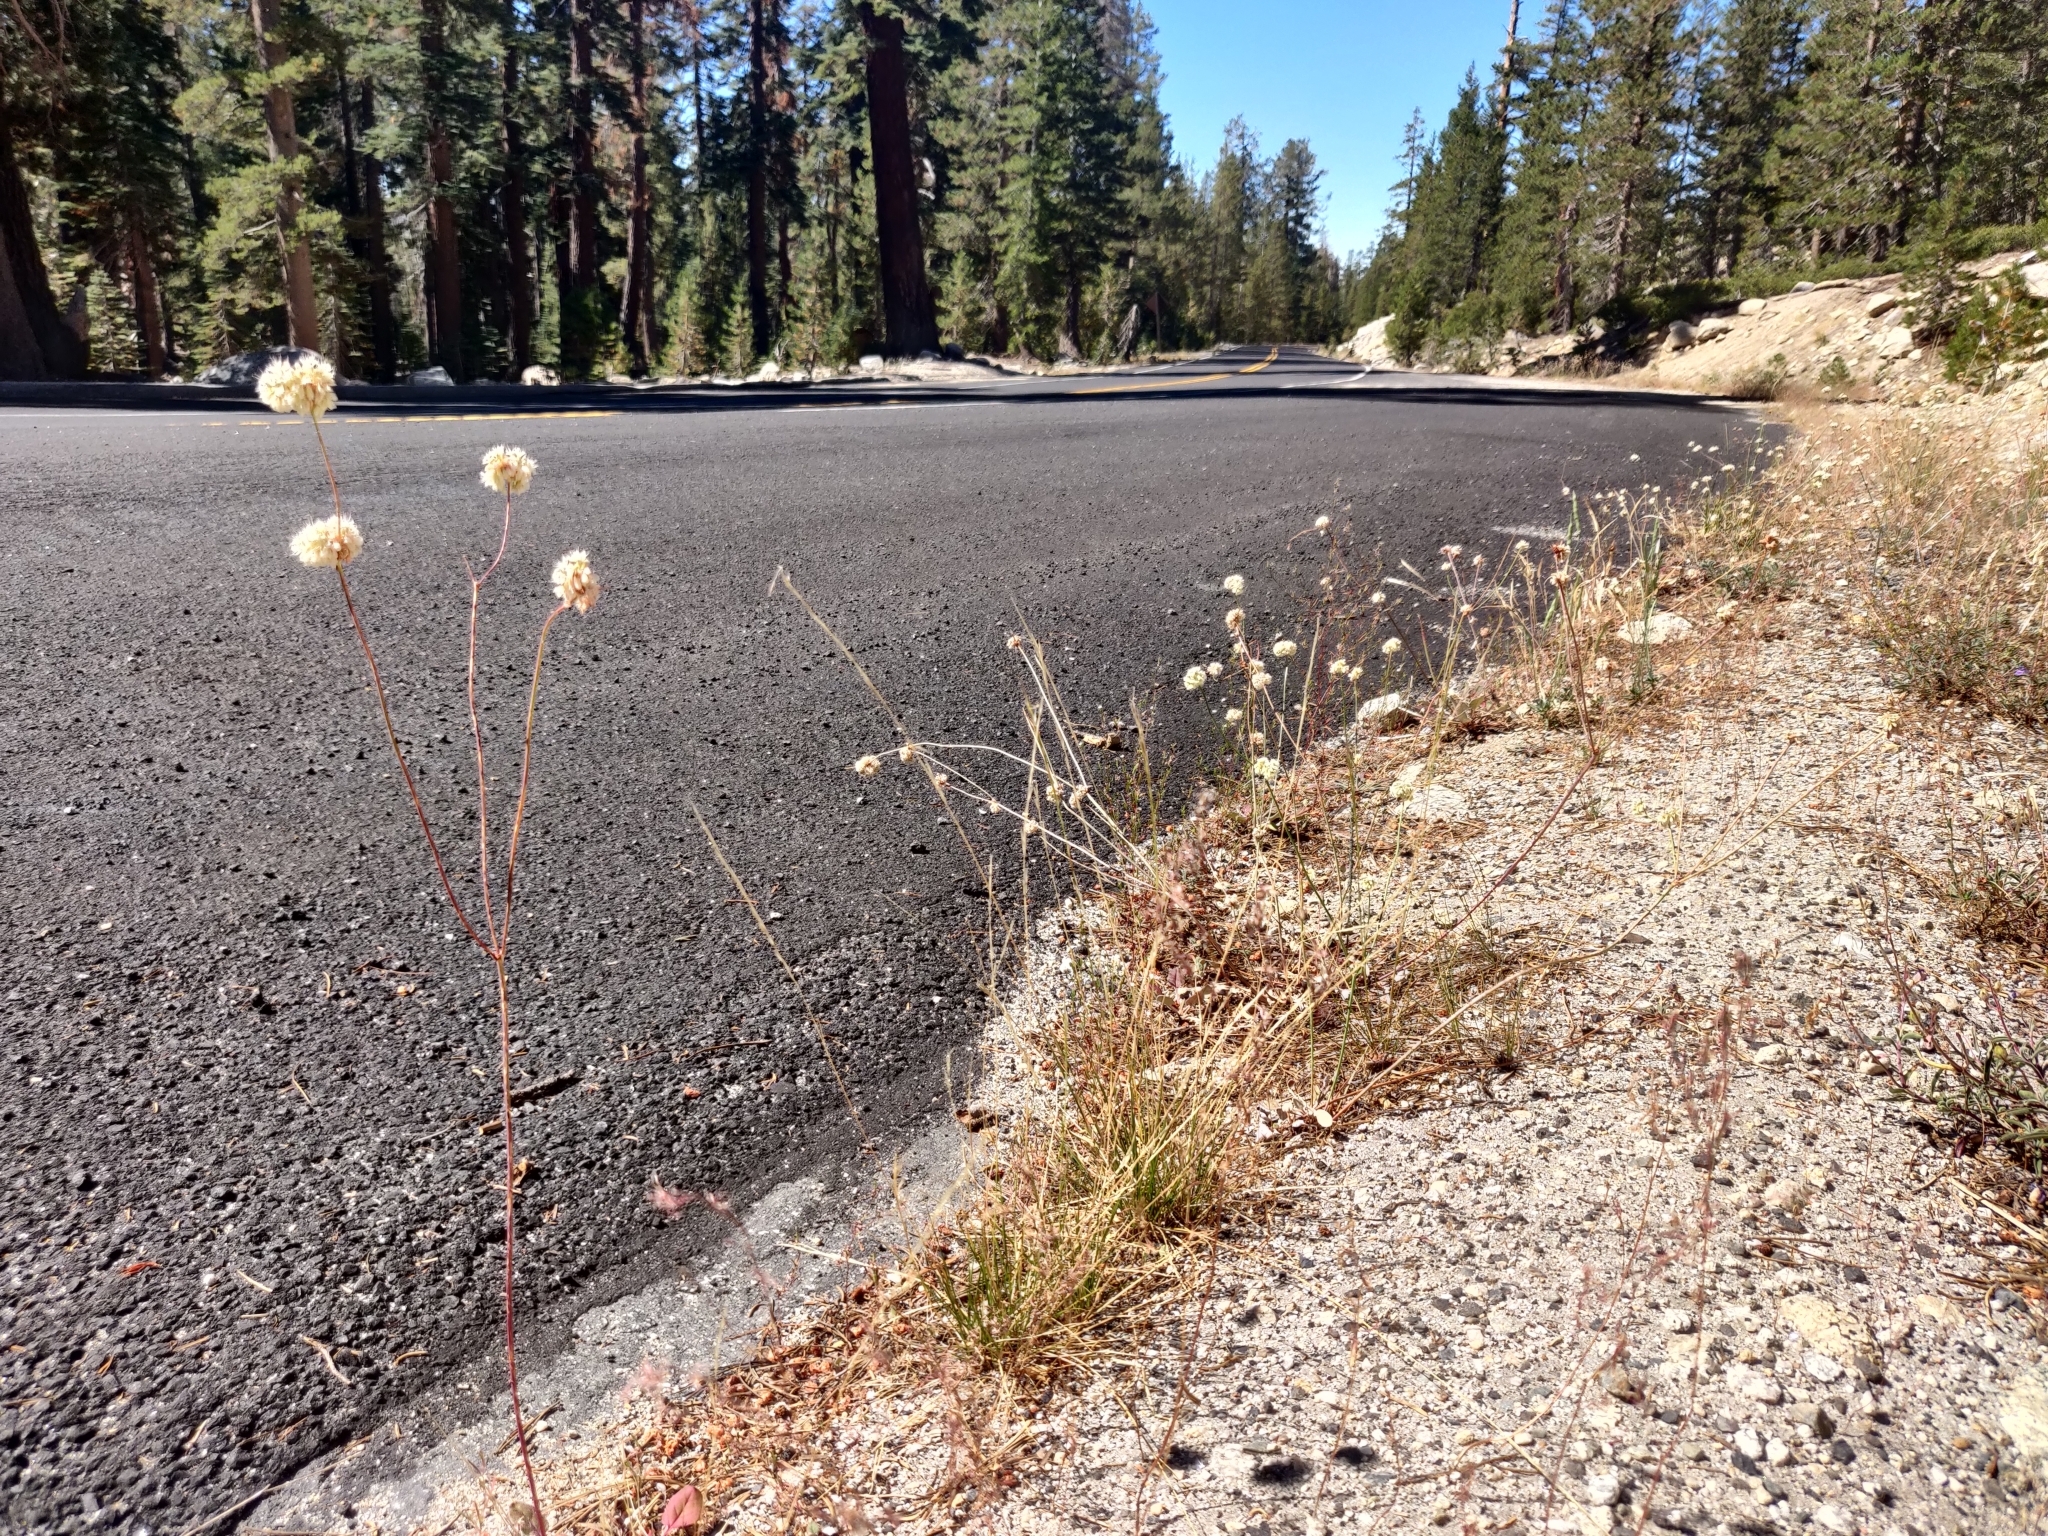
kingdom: Plantae
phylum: Tracheophyta
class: Magnoliopsida
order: Caryophyllales
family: Polygonaceae
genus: Eriogonum
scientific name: Eriogonum nudum
